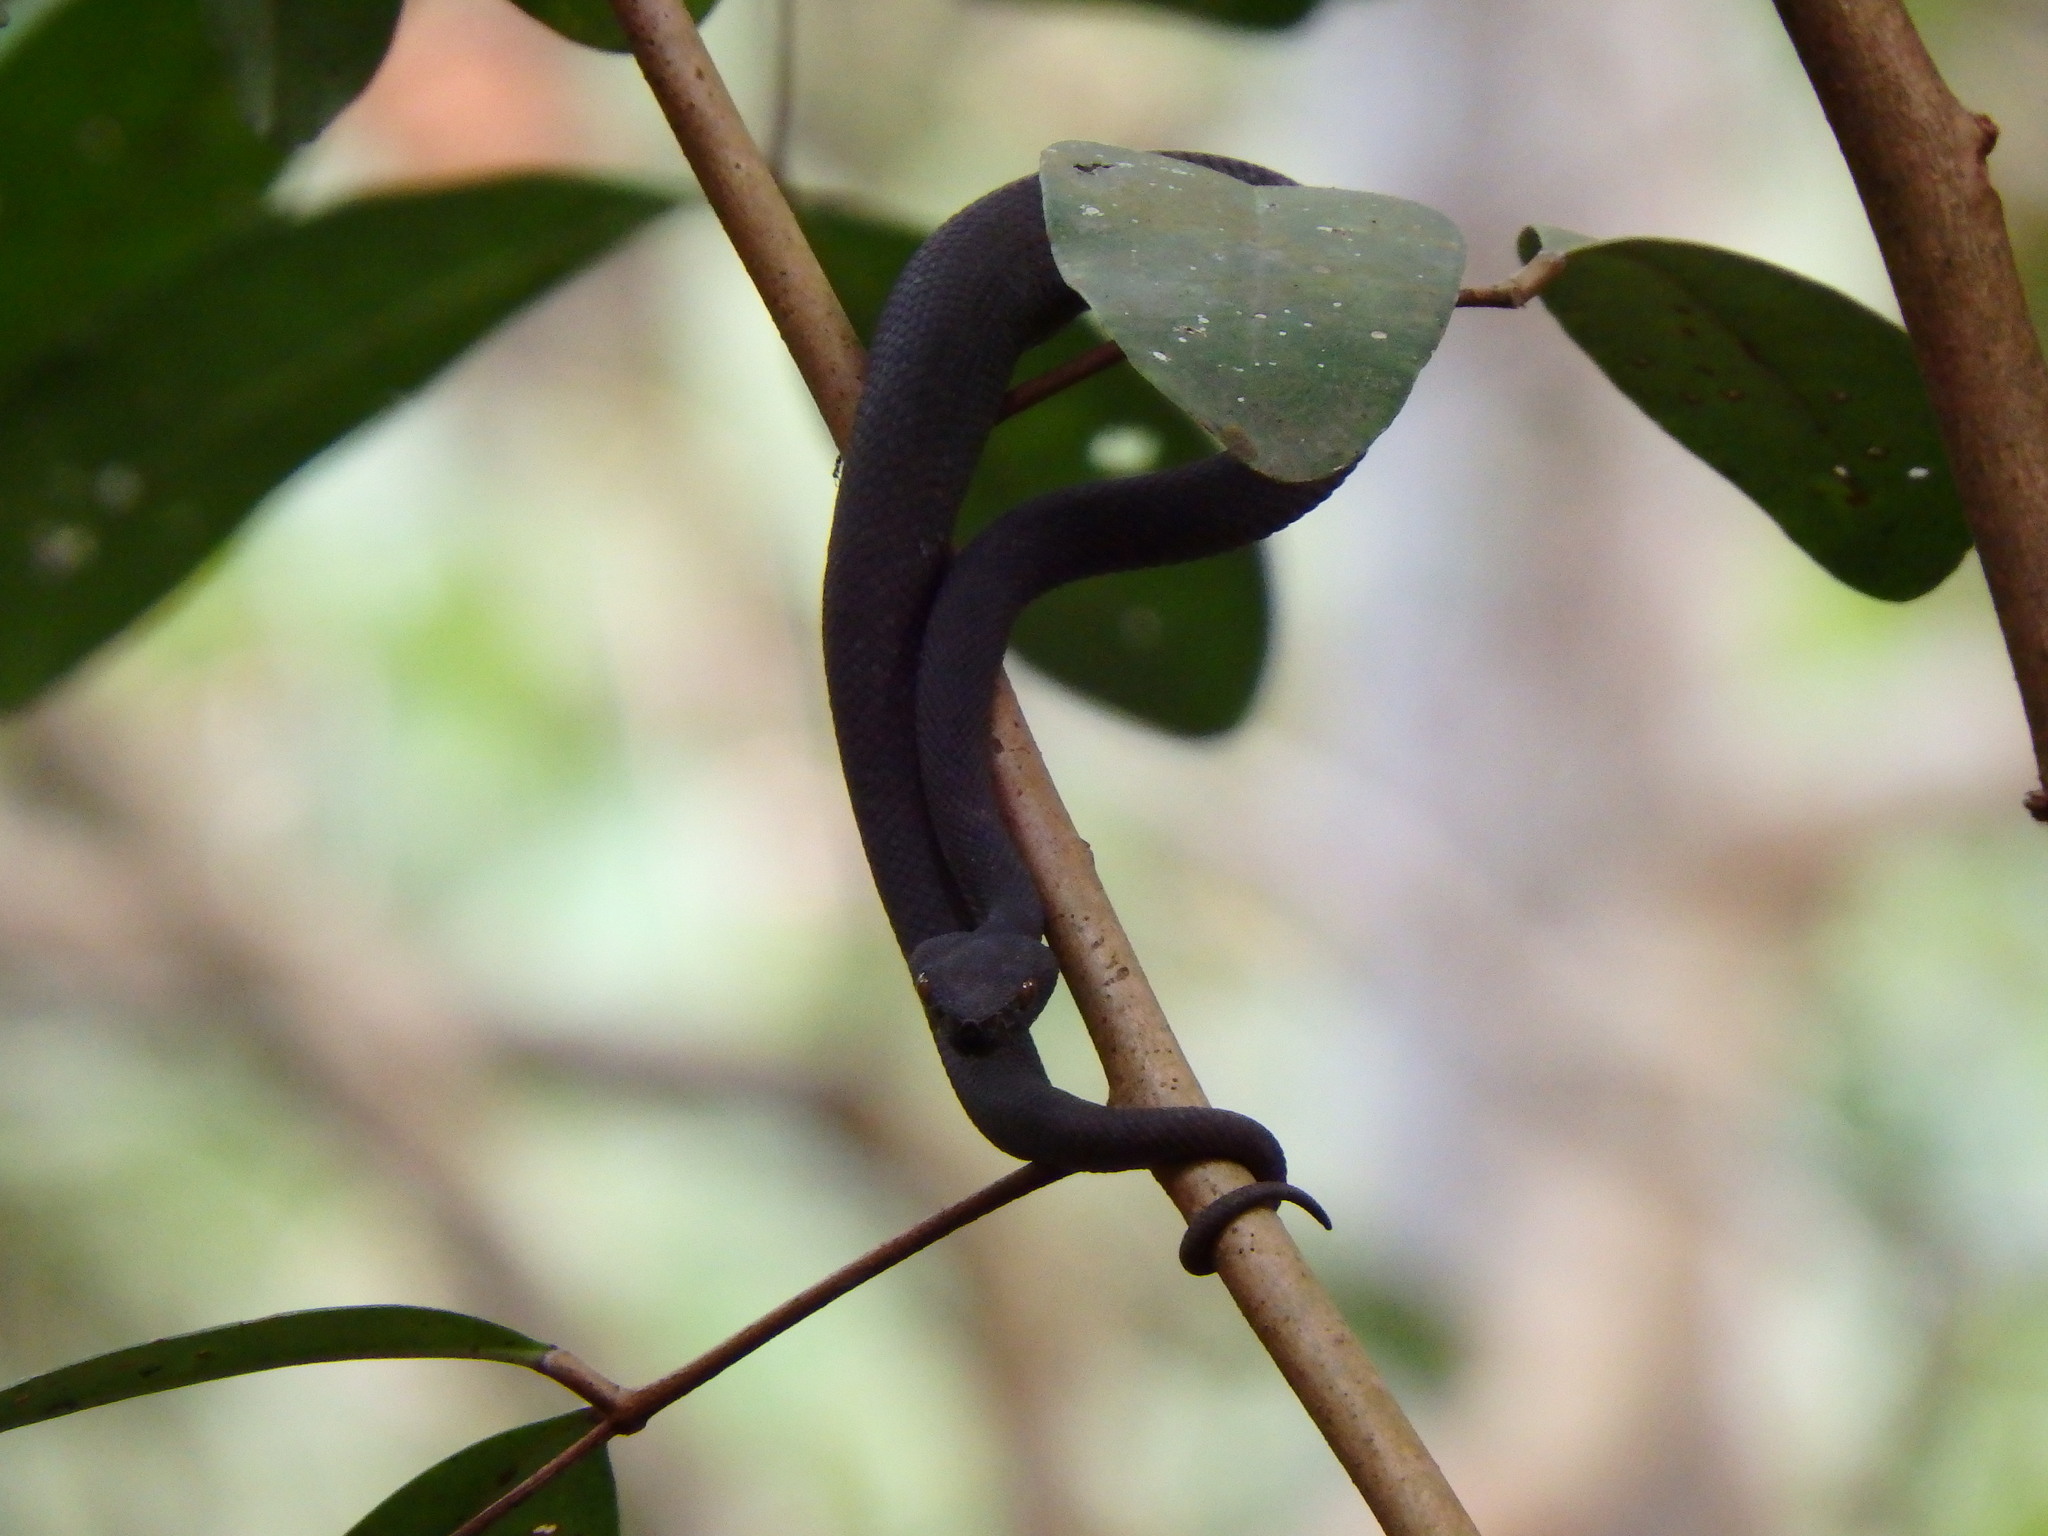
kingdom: Animalia
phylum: Chordata
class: Squamata
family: Viperidae
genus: Trimeresurus
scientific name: Trimeresurus purpureomaculatus
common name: Shore pit viper
